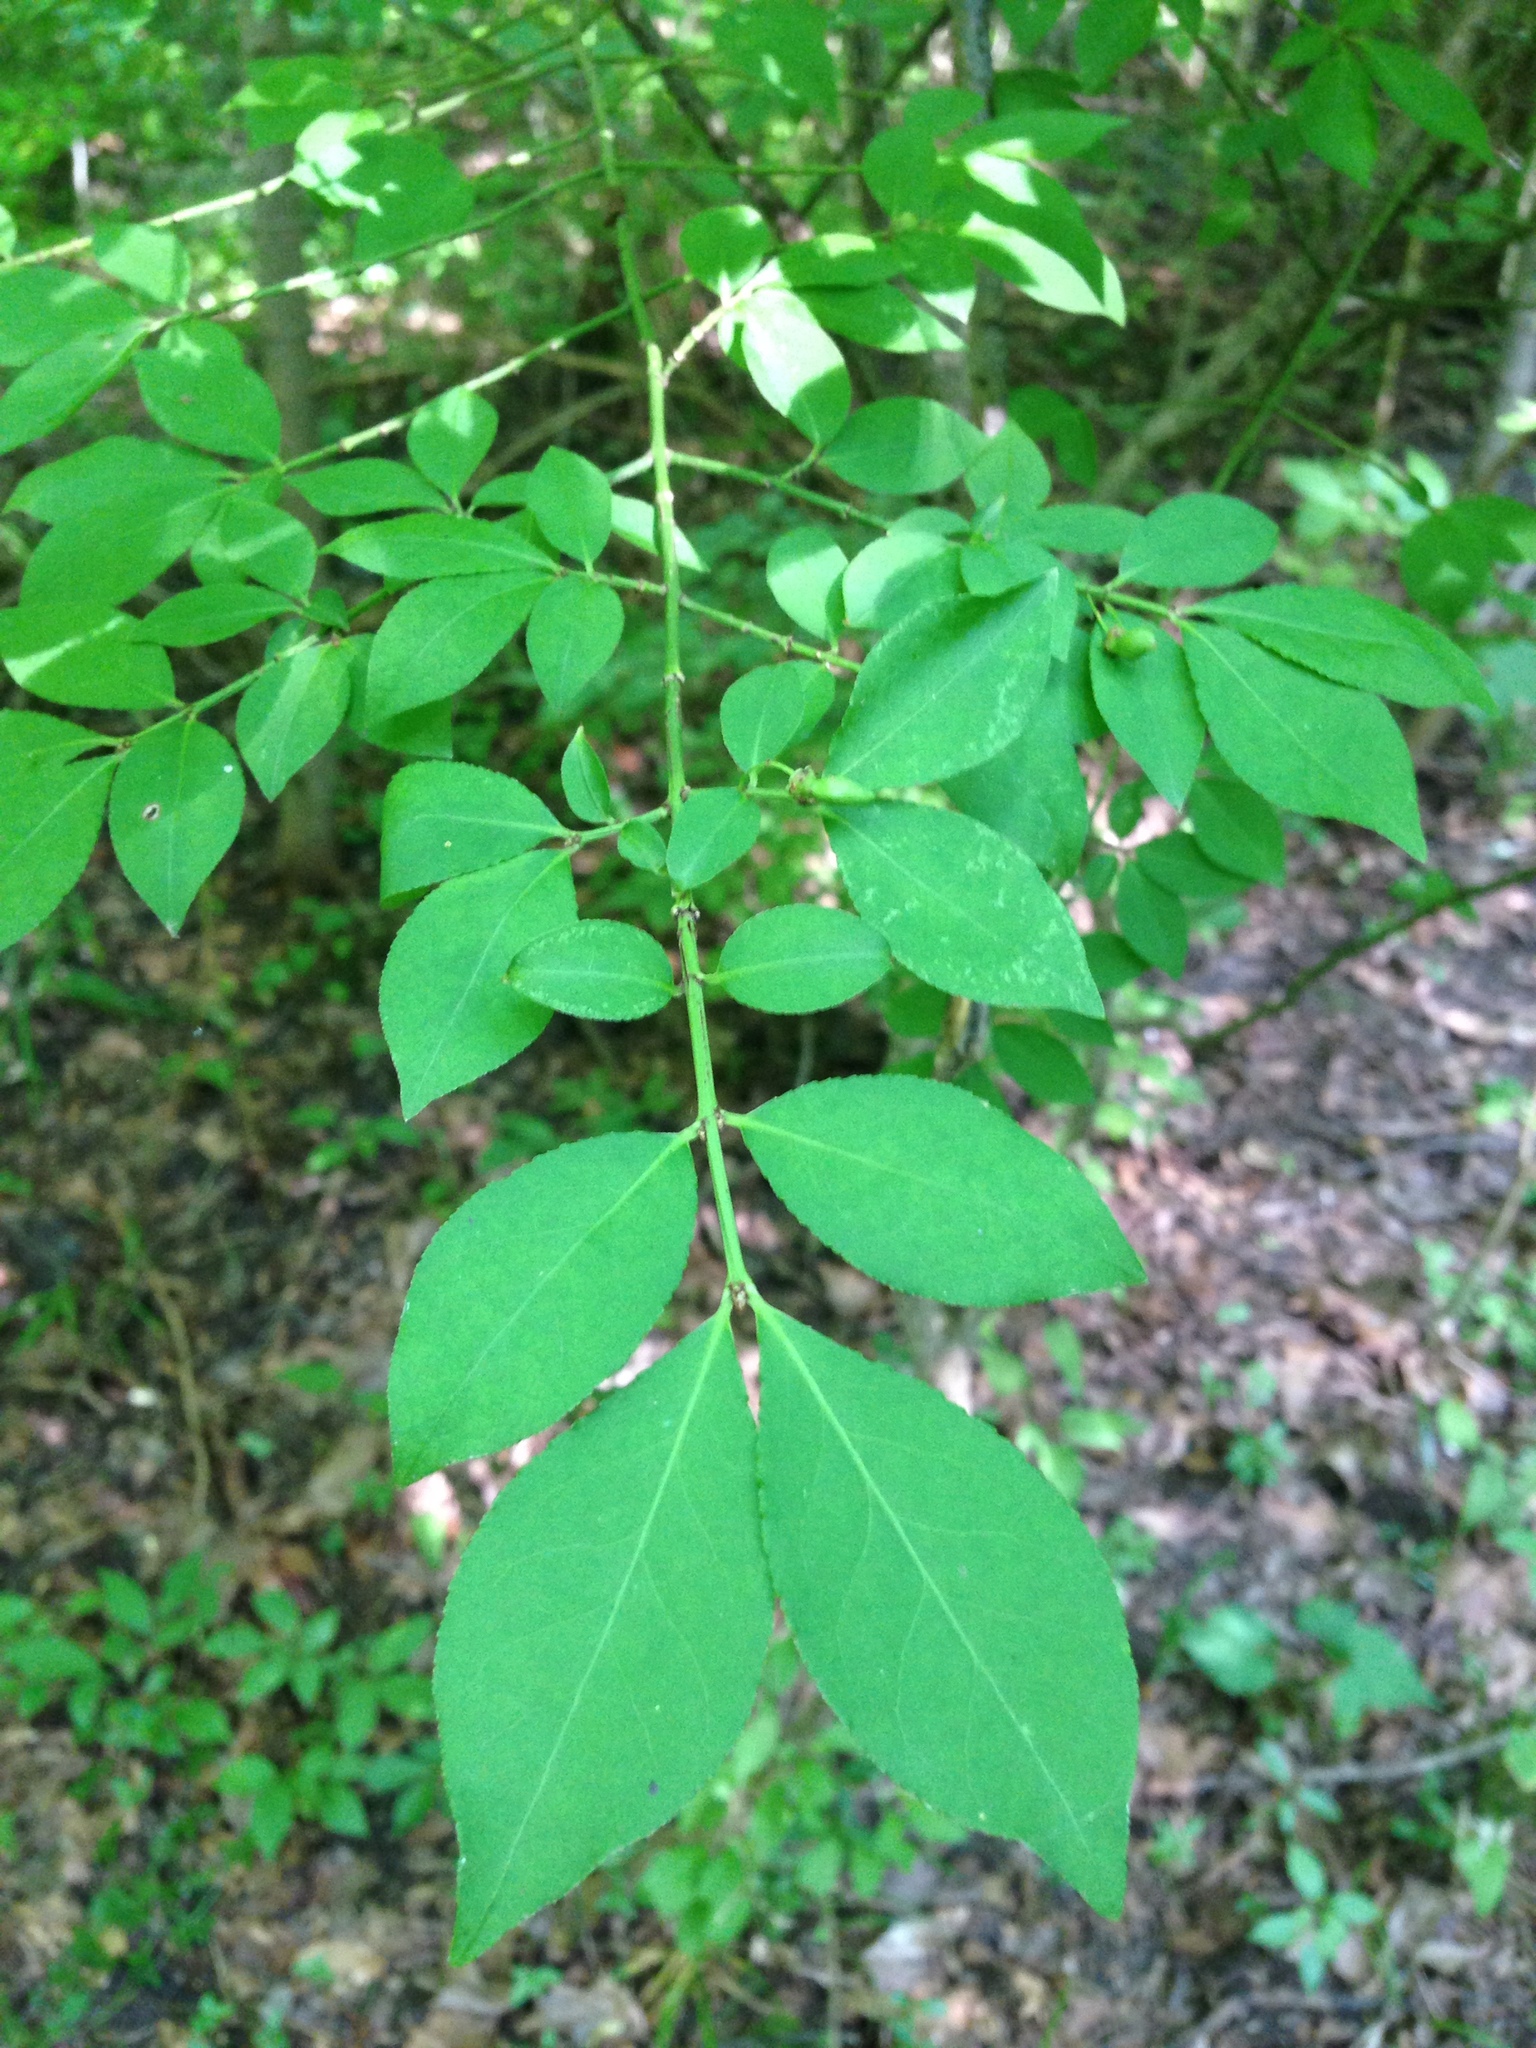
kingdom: Plantae
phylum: Tracheophyta
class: Magnoliopsida
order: Celastrales
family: Celastraceae
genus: Euonymus
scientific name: Euonymus alatus
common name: Winged euonymus
